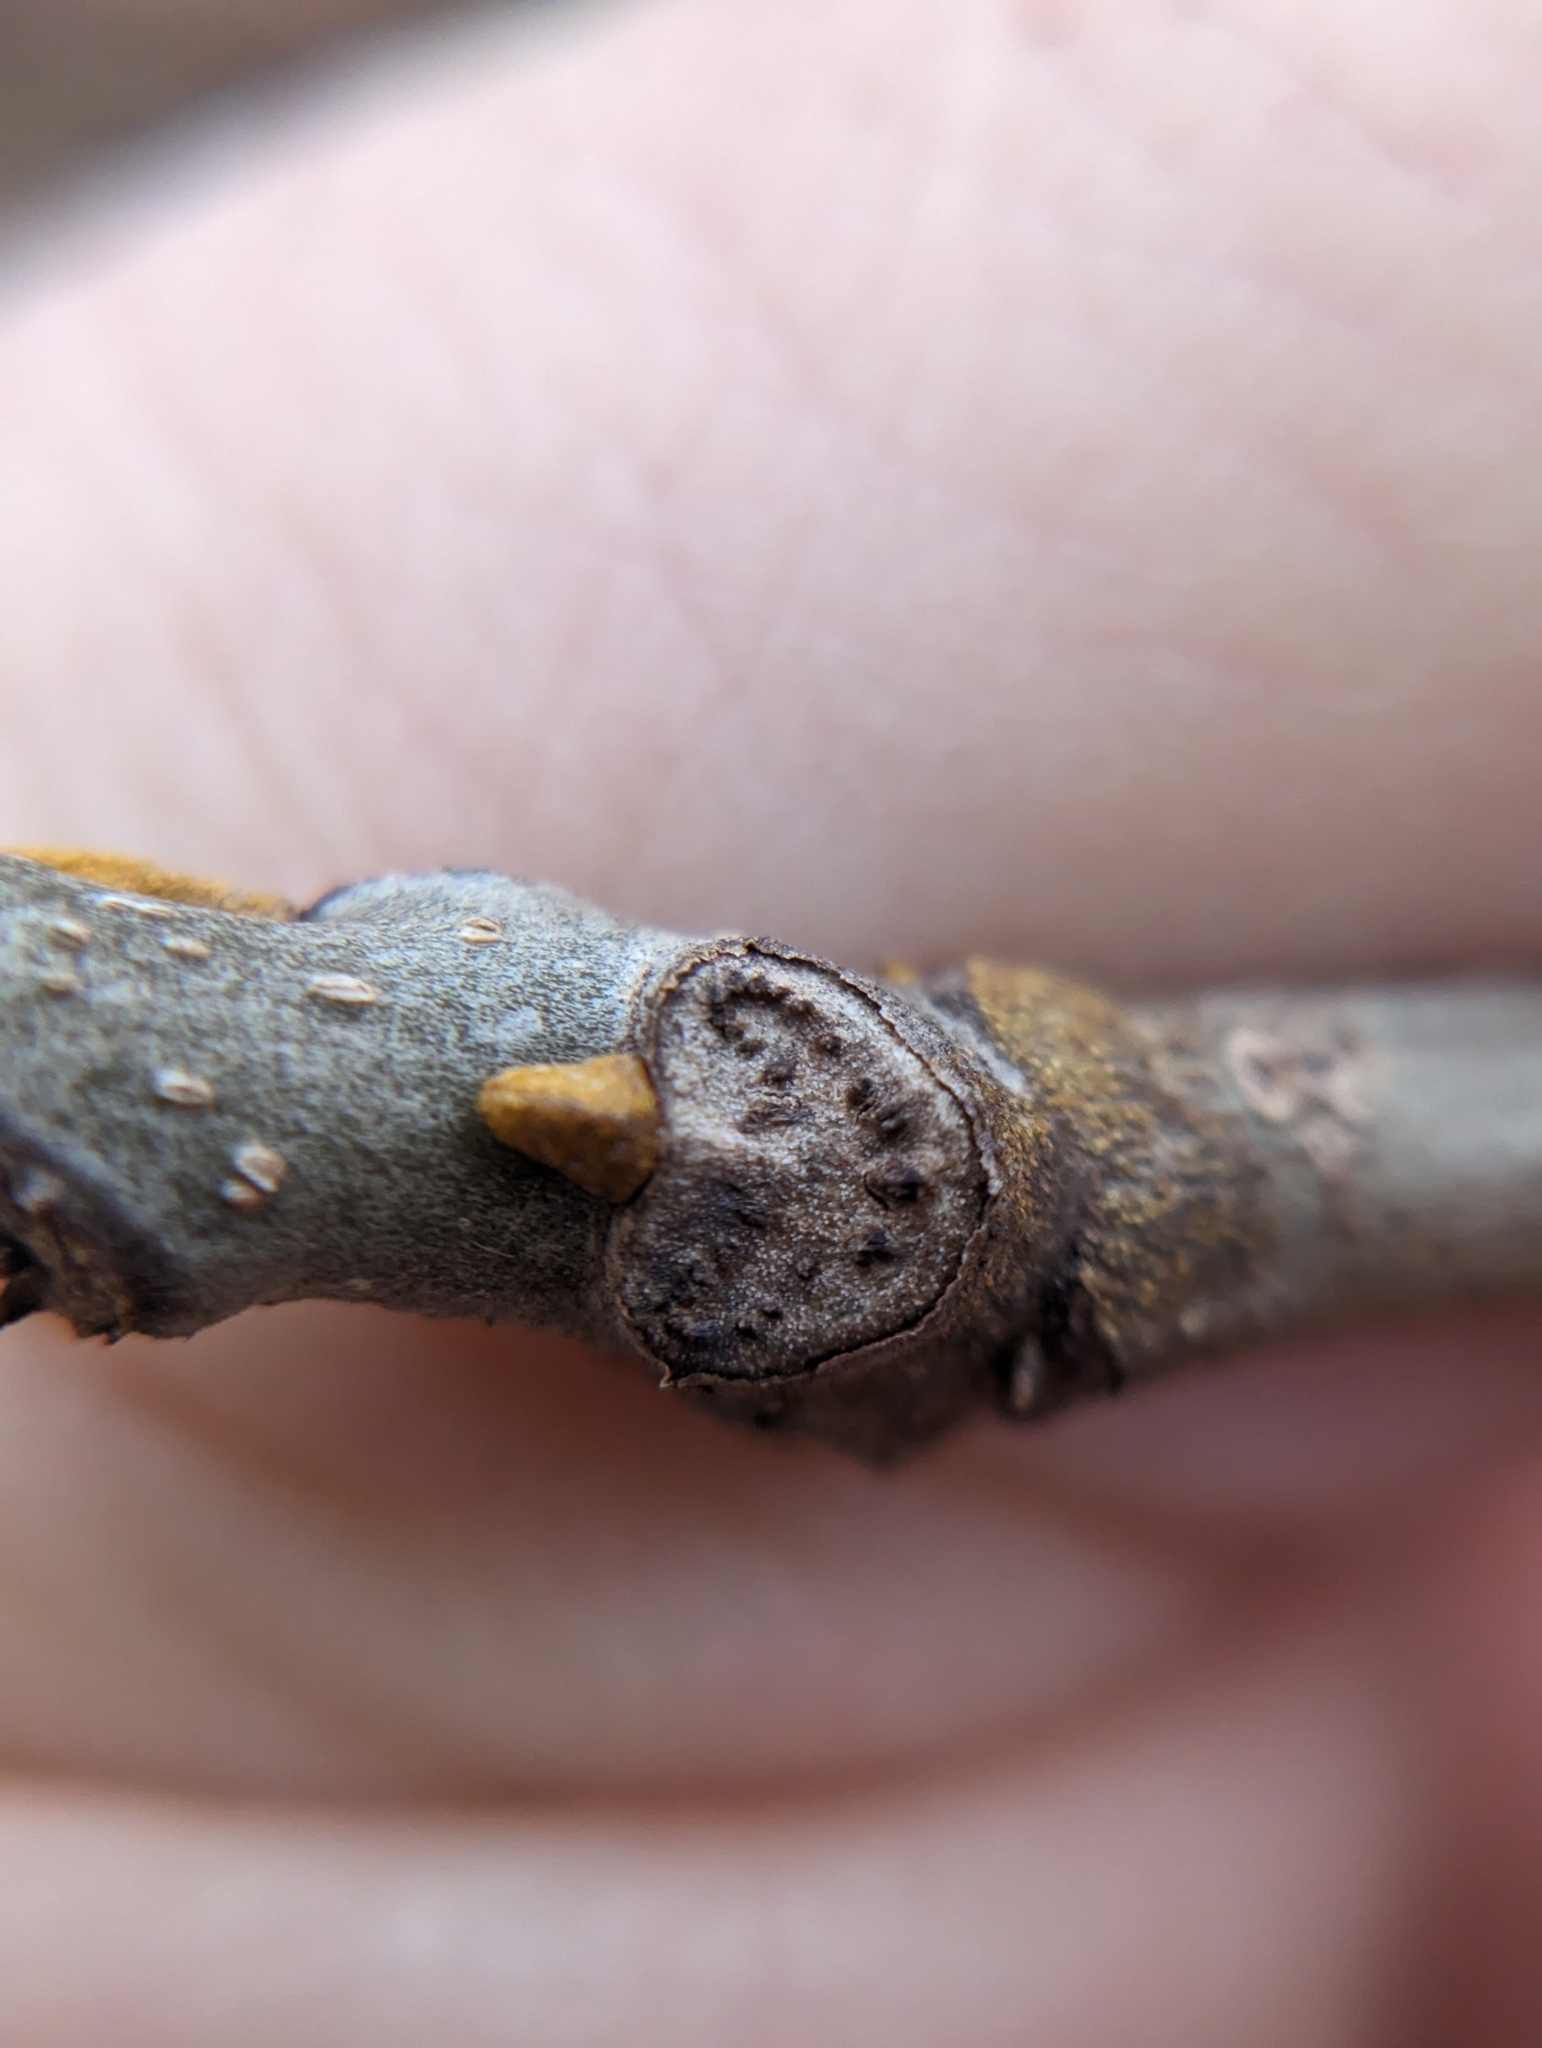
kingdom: Plantae
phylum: Tracheophyta
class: Magnoliopsida
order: Fagales
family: Juglandaceae
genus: Carya
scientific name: Carya cordiformis
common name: Bitternut hickory
